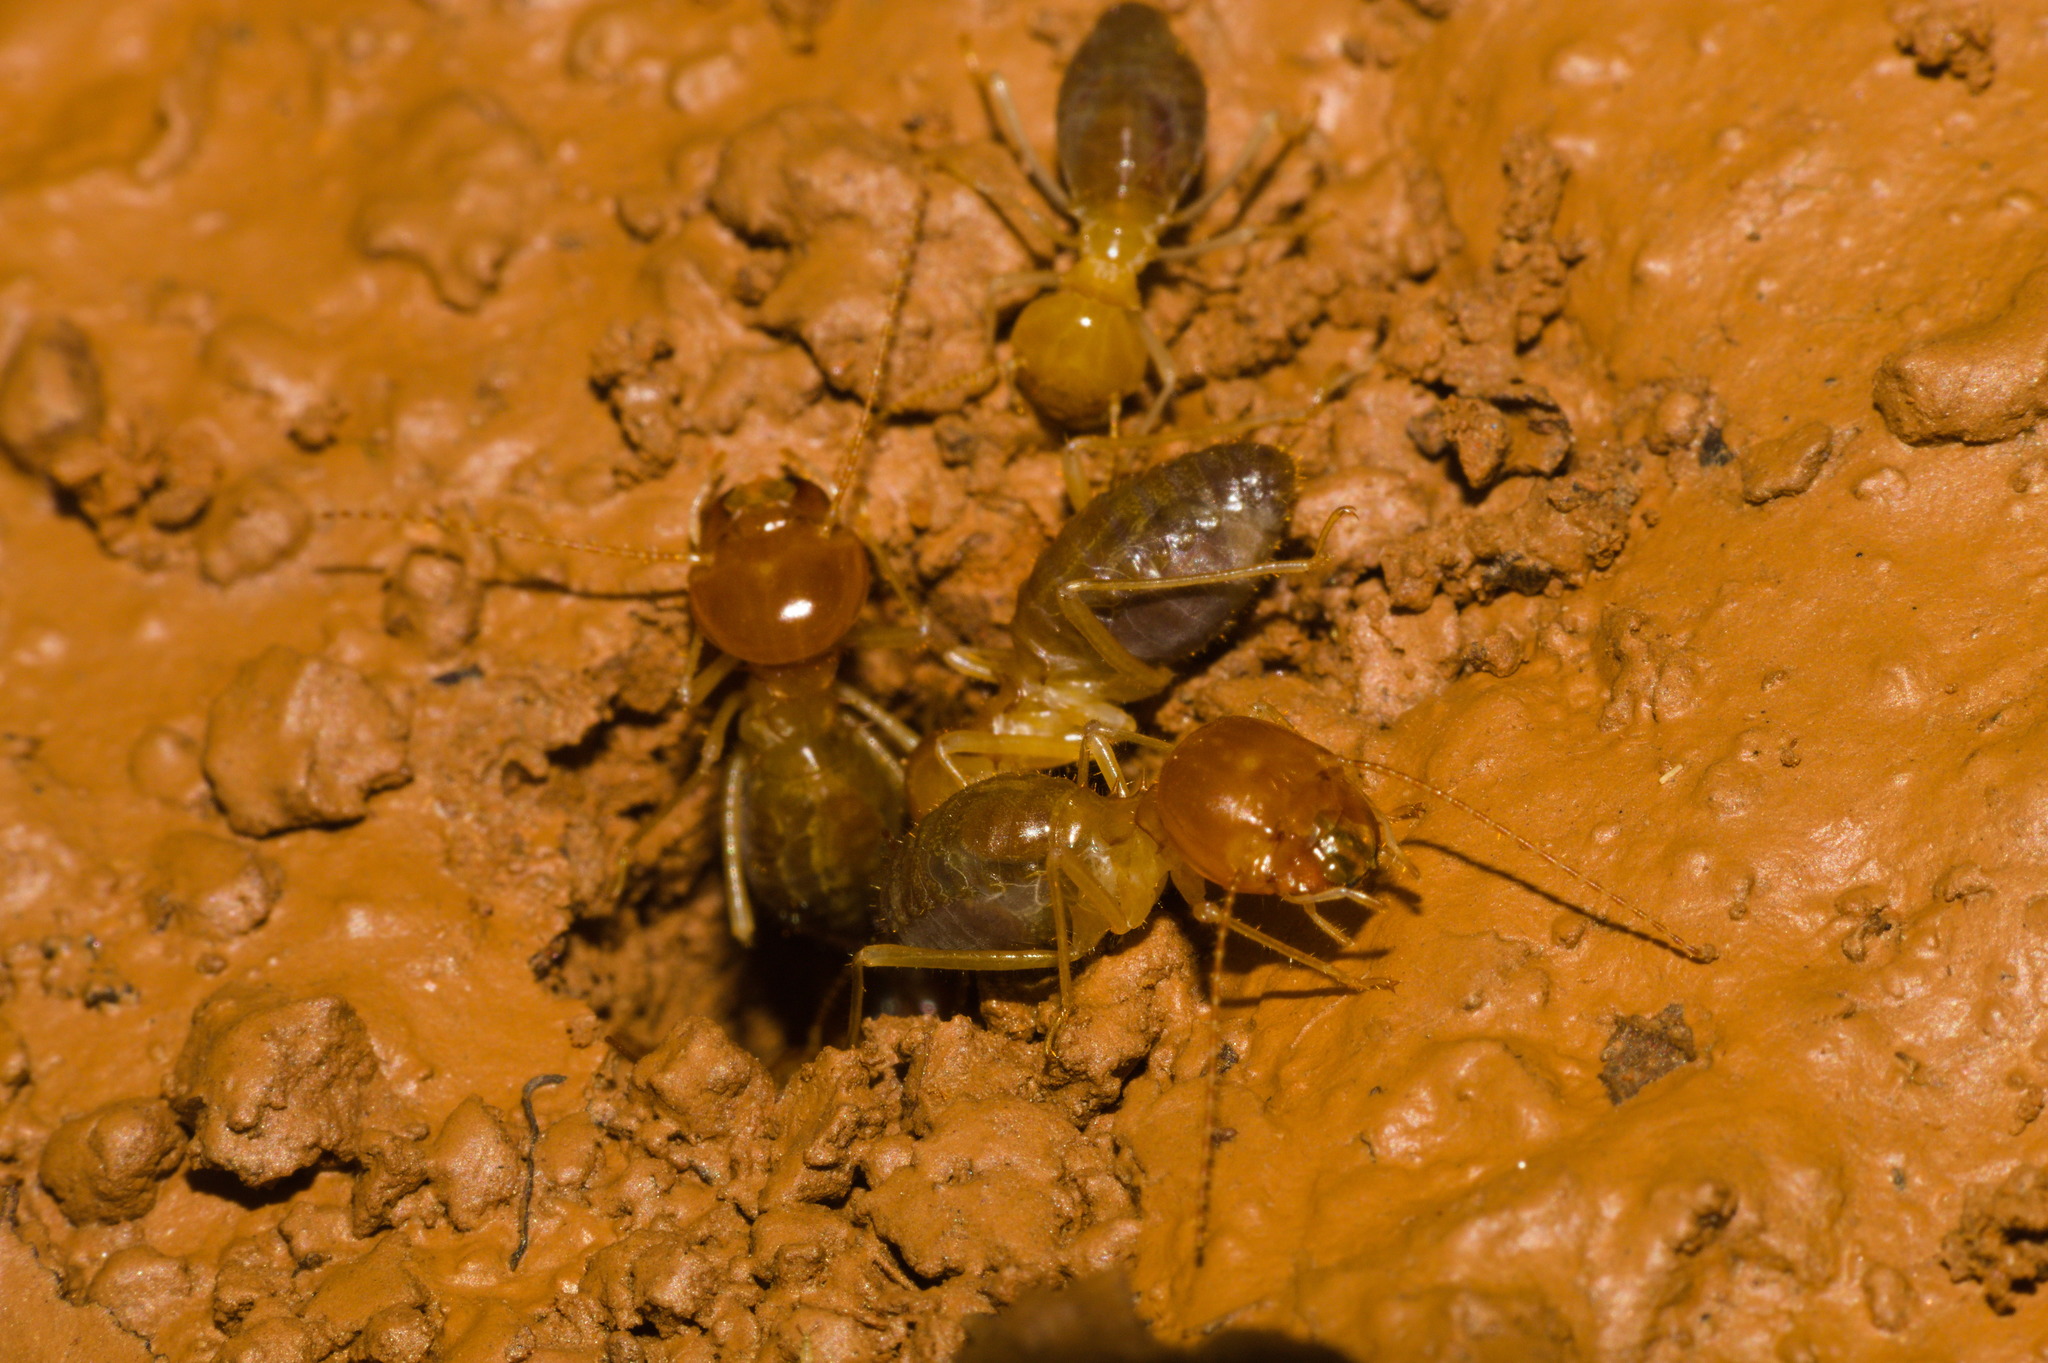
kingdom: Animalia
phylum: Arthropoda
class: Insecta
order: Blattodea
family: Termitidae
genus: Syntermes
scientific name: Syntermes obtusus
